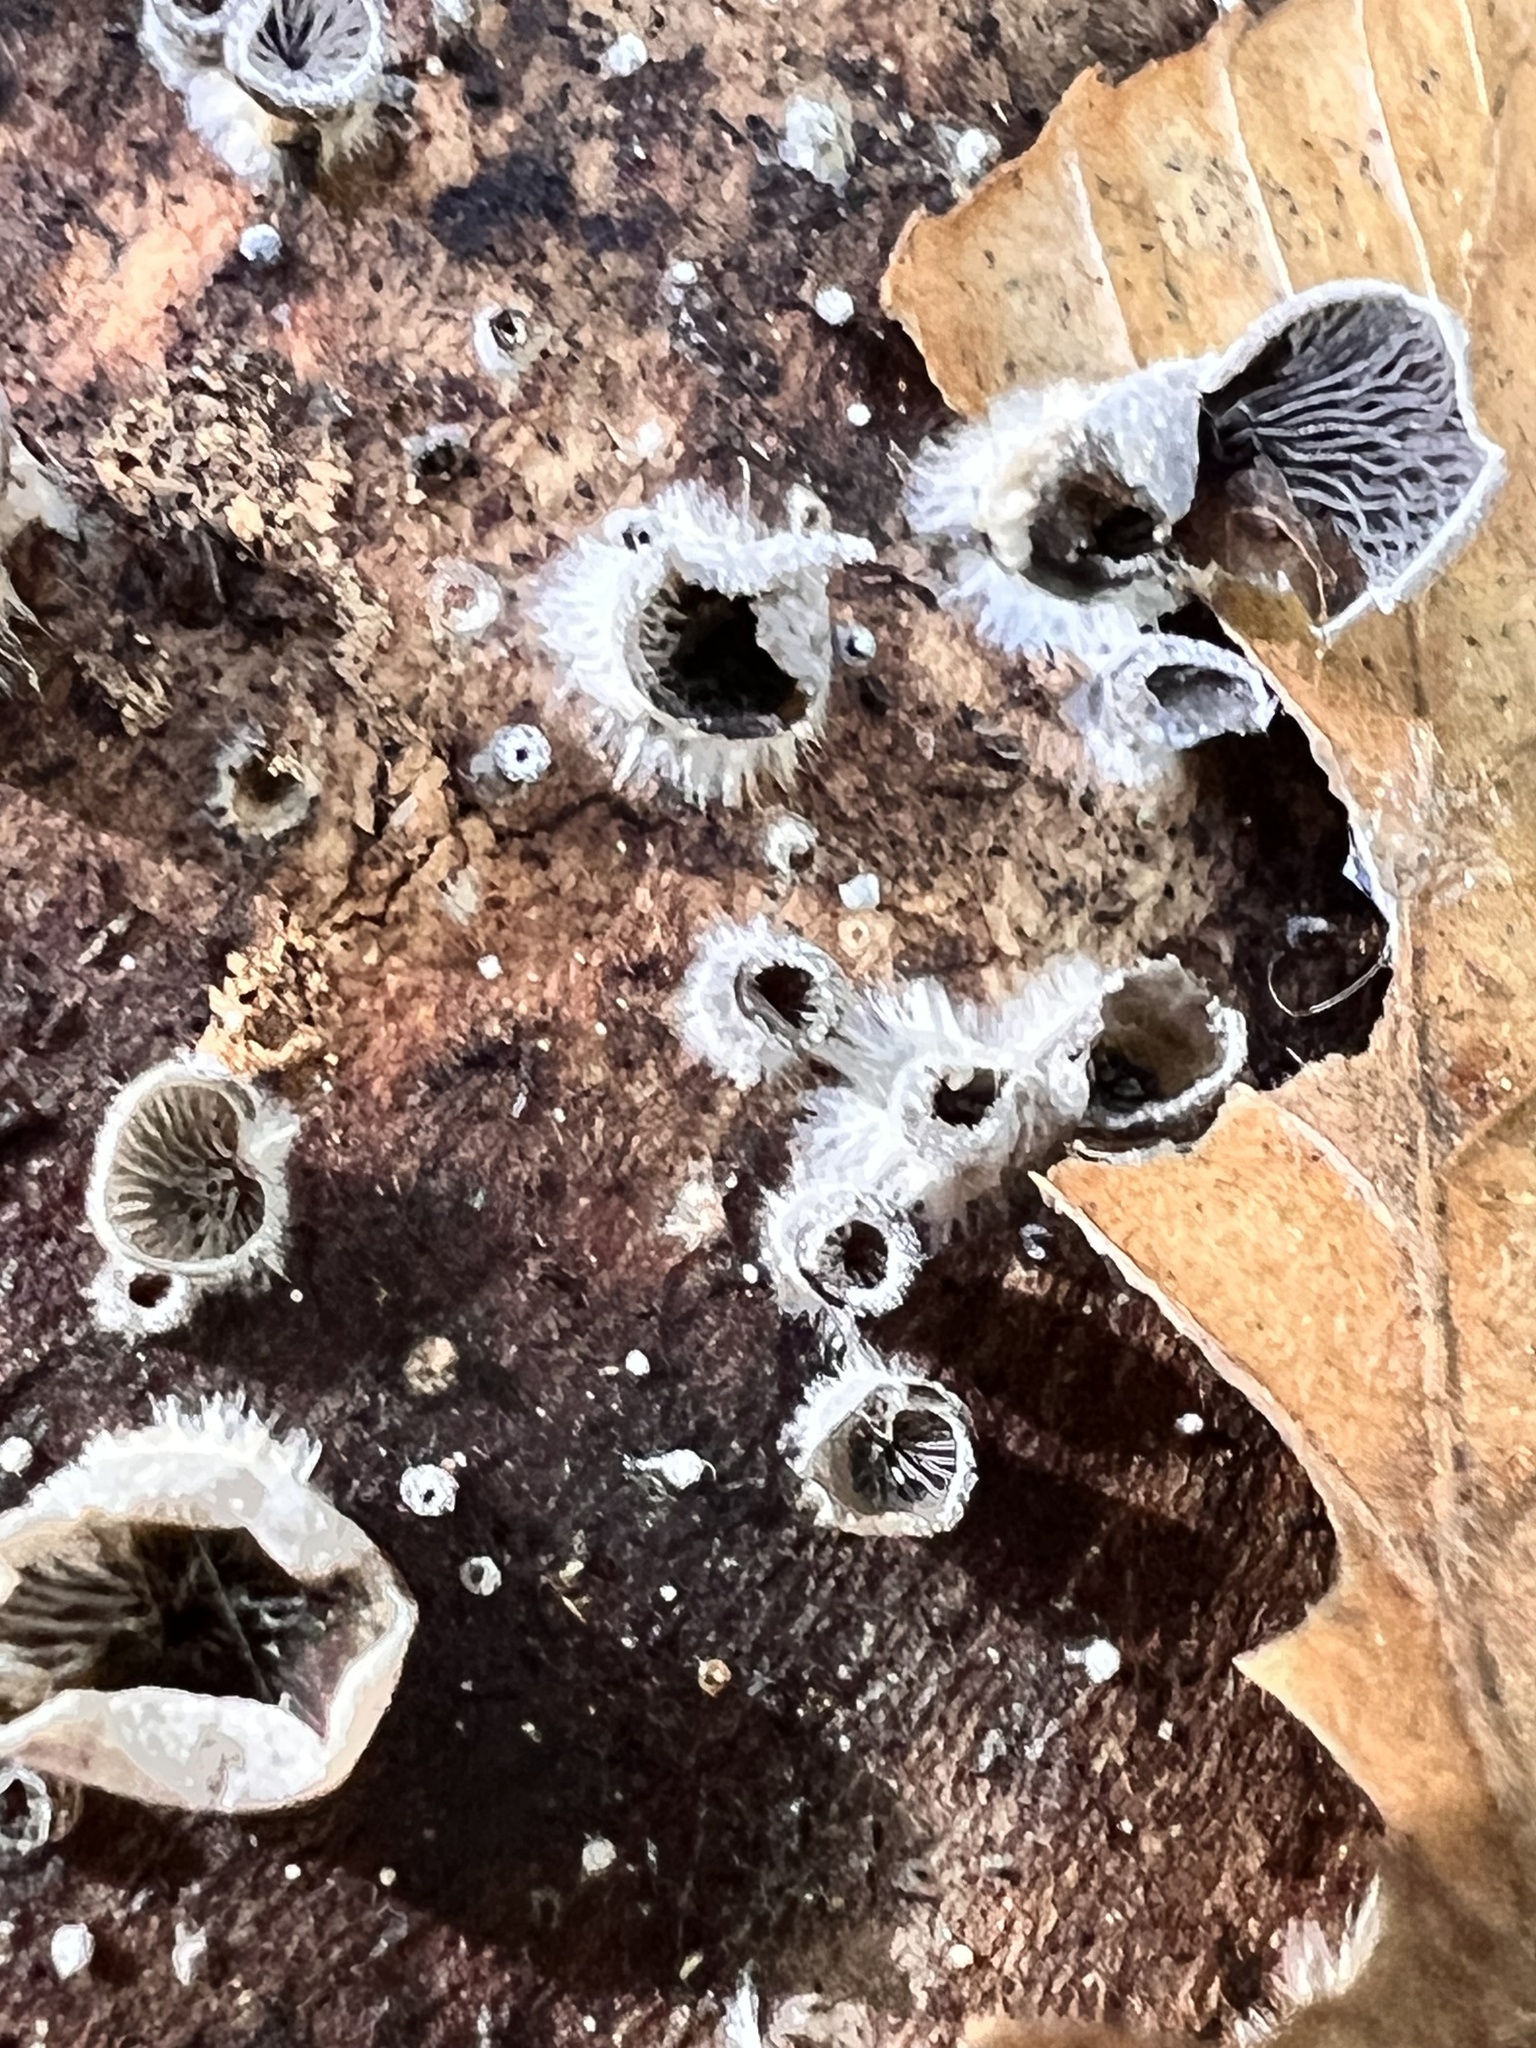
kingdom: Fungi
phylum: Basidiomycota
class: Agaricomycetes
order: Agaricales
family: Pleurotaceae
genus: Resupinatus
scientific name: Resupinatus applicatus
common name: Smoked oysterling
